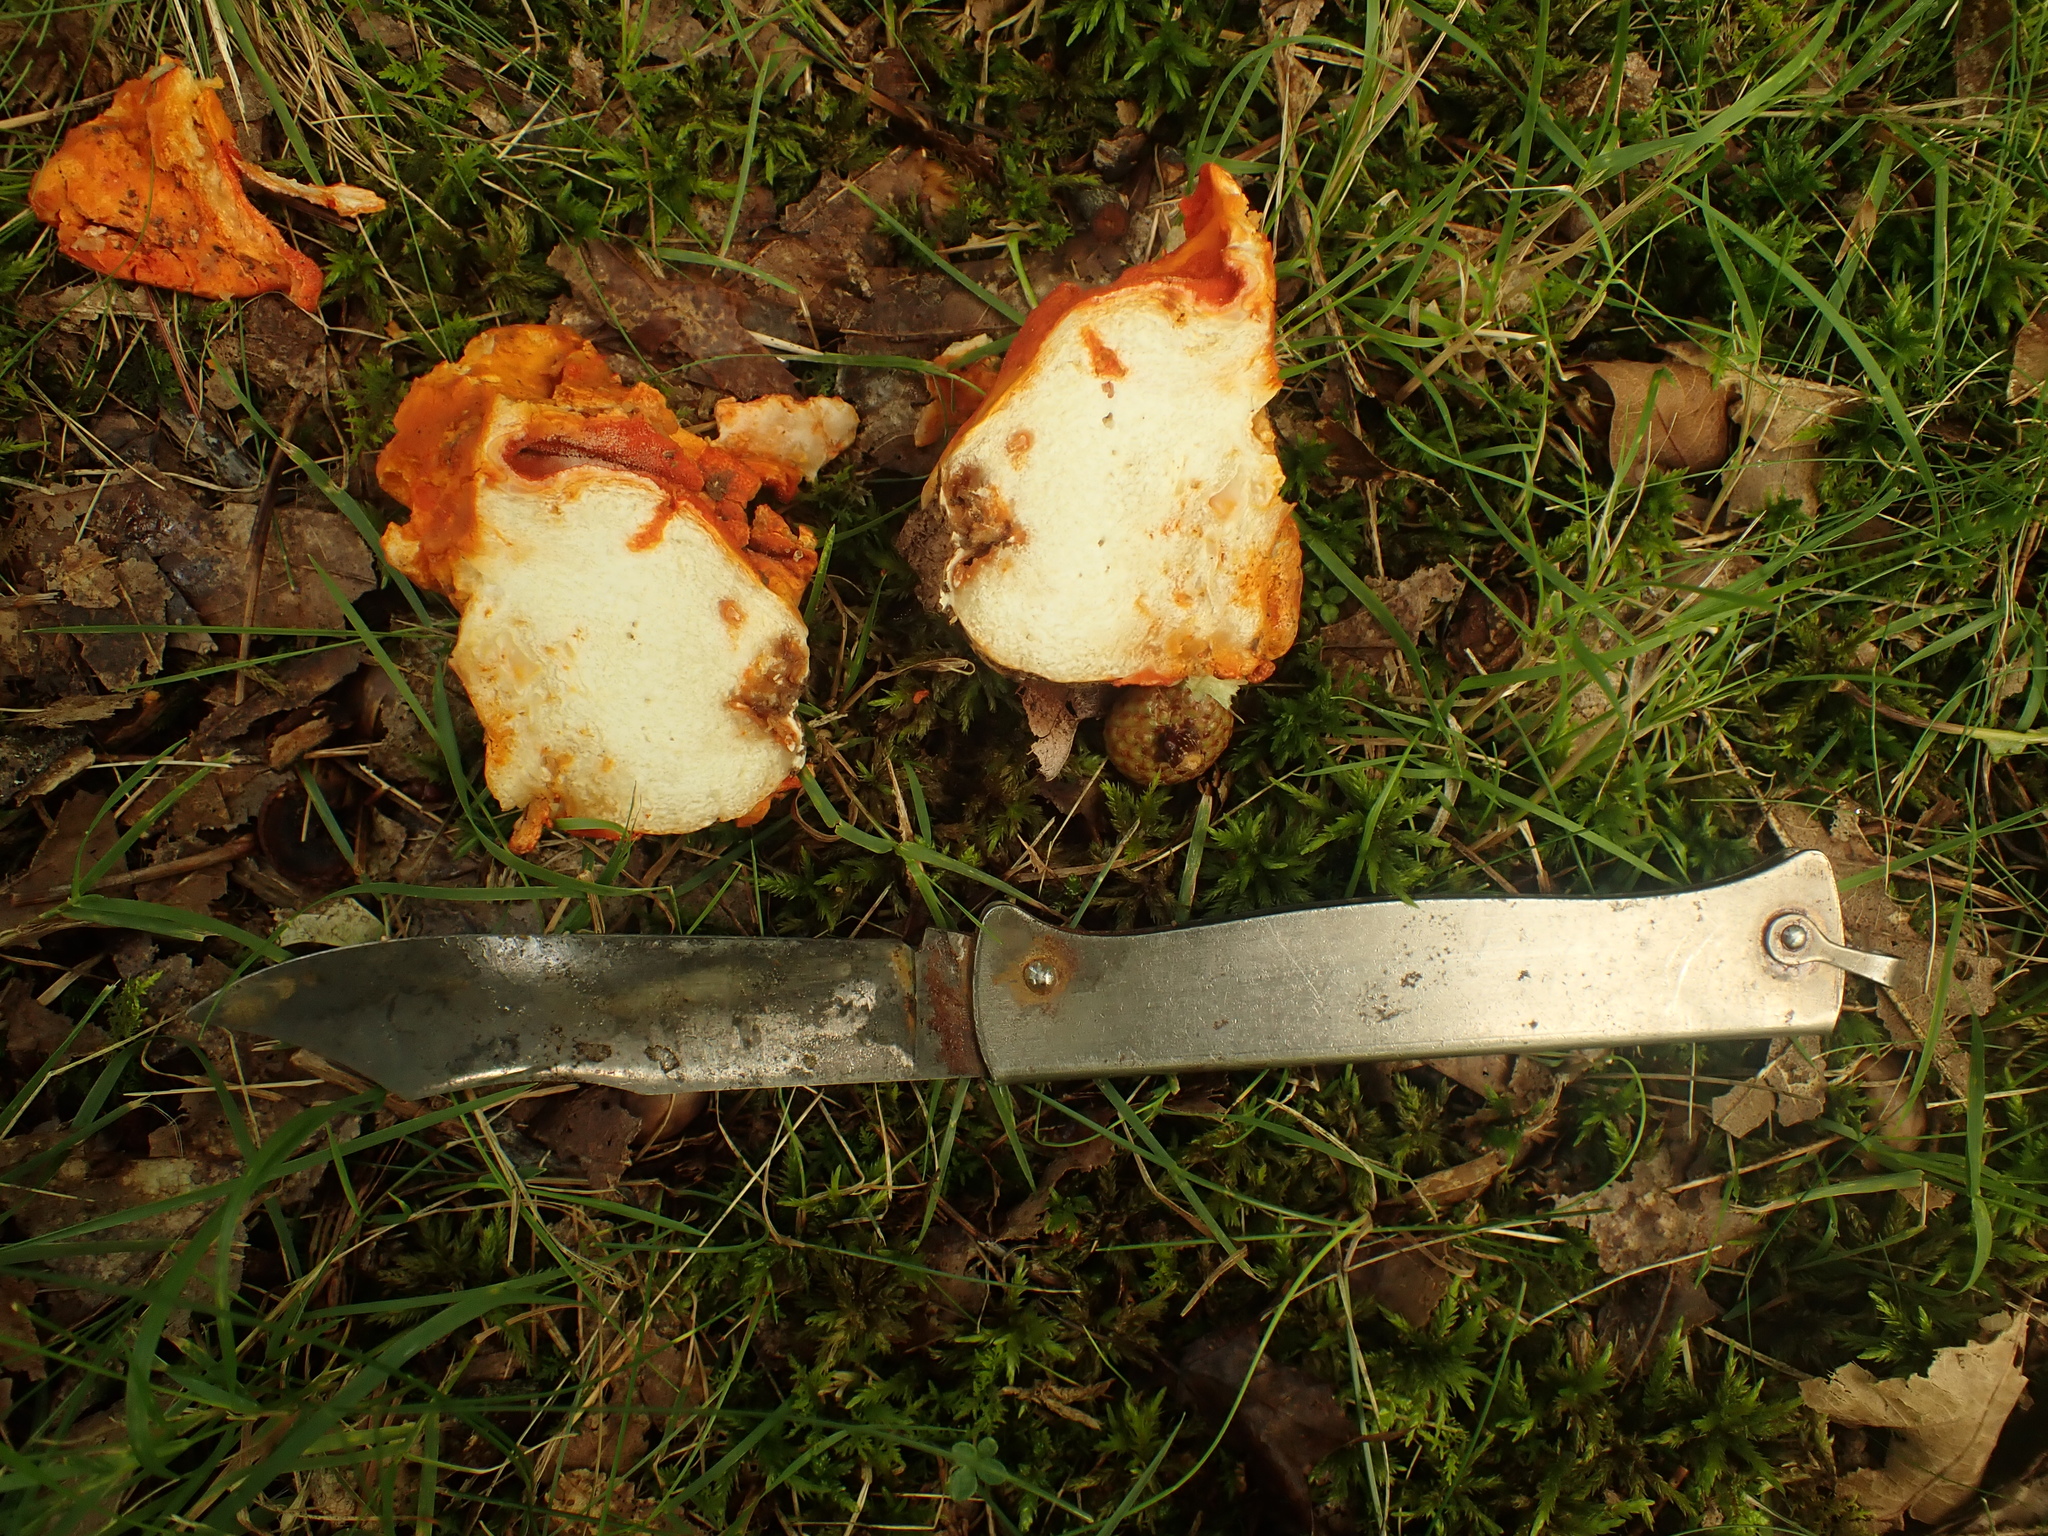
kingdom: Fungi
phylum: Ascomycota
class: Sordariomycetes
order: Hypocreales
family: Hypocreaceae
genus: Hypomyces
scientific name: Hypomyces lactifluorum
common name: Lobster mushroom
